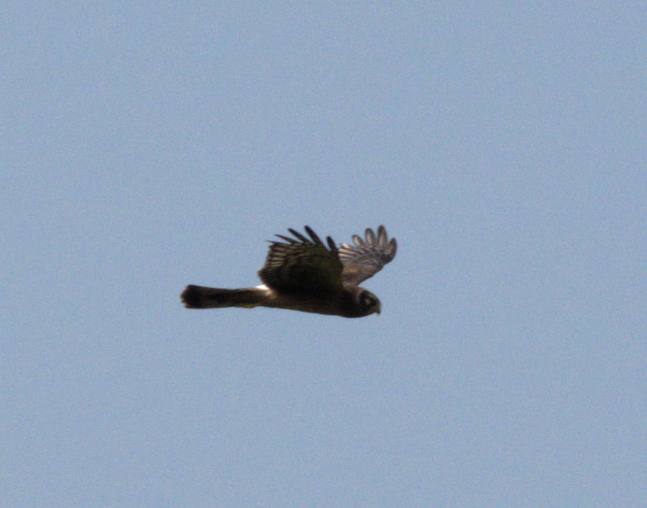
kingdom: Animalia
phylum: Chordata
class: Aves
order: Accipitriformes
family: Accipitridae
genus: Circus
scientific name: Circus cyaneus
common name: Hen harrier
